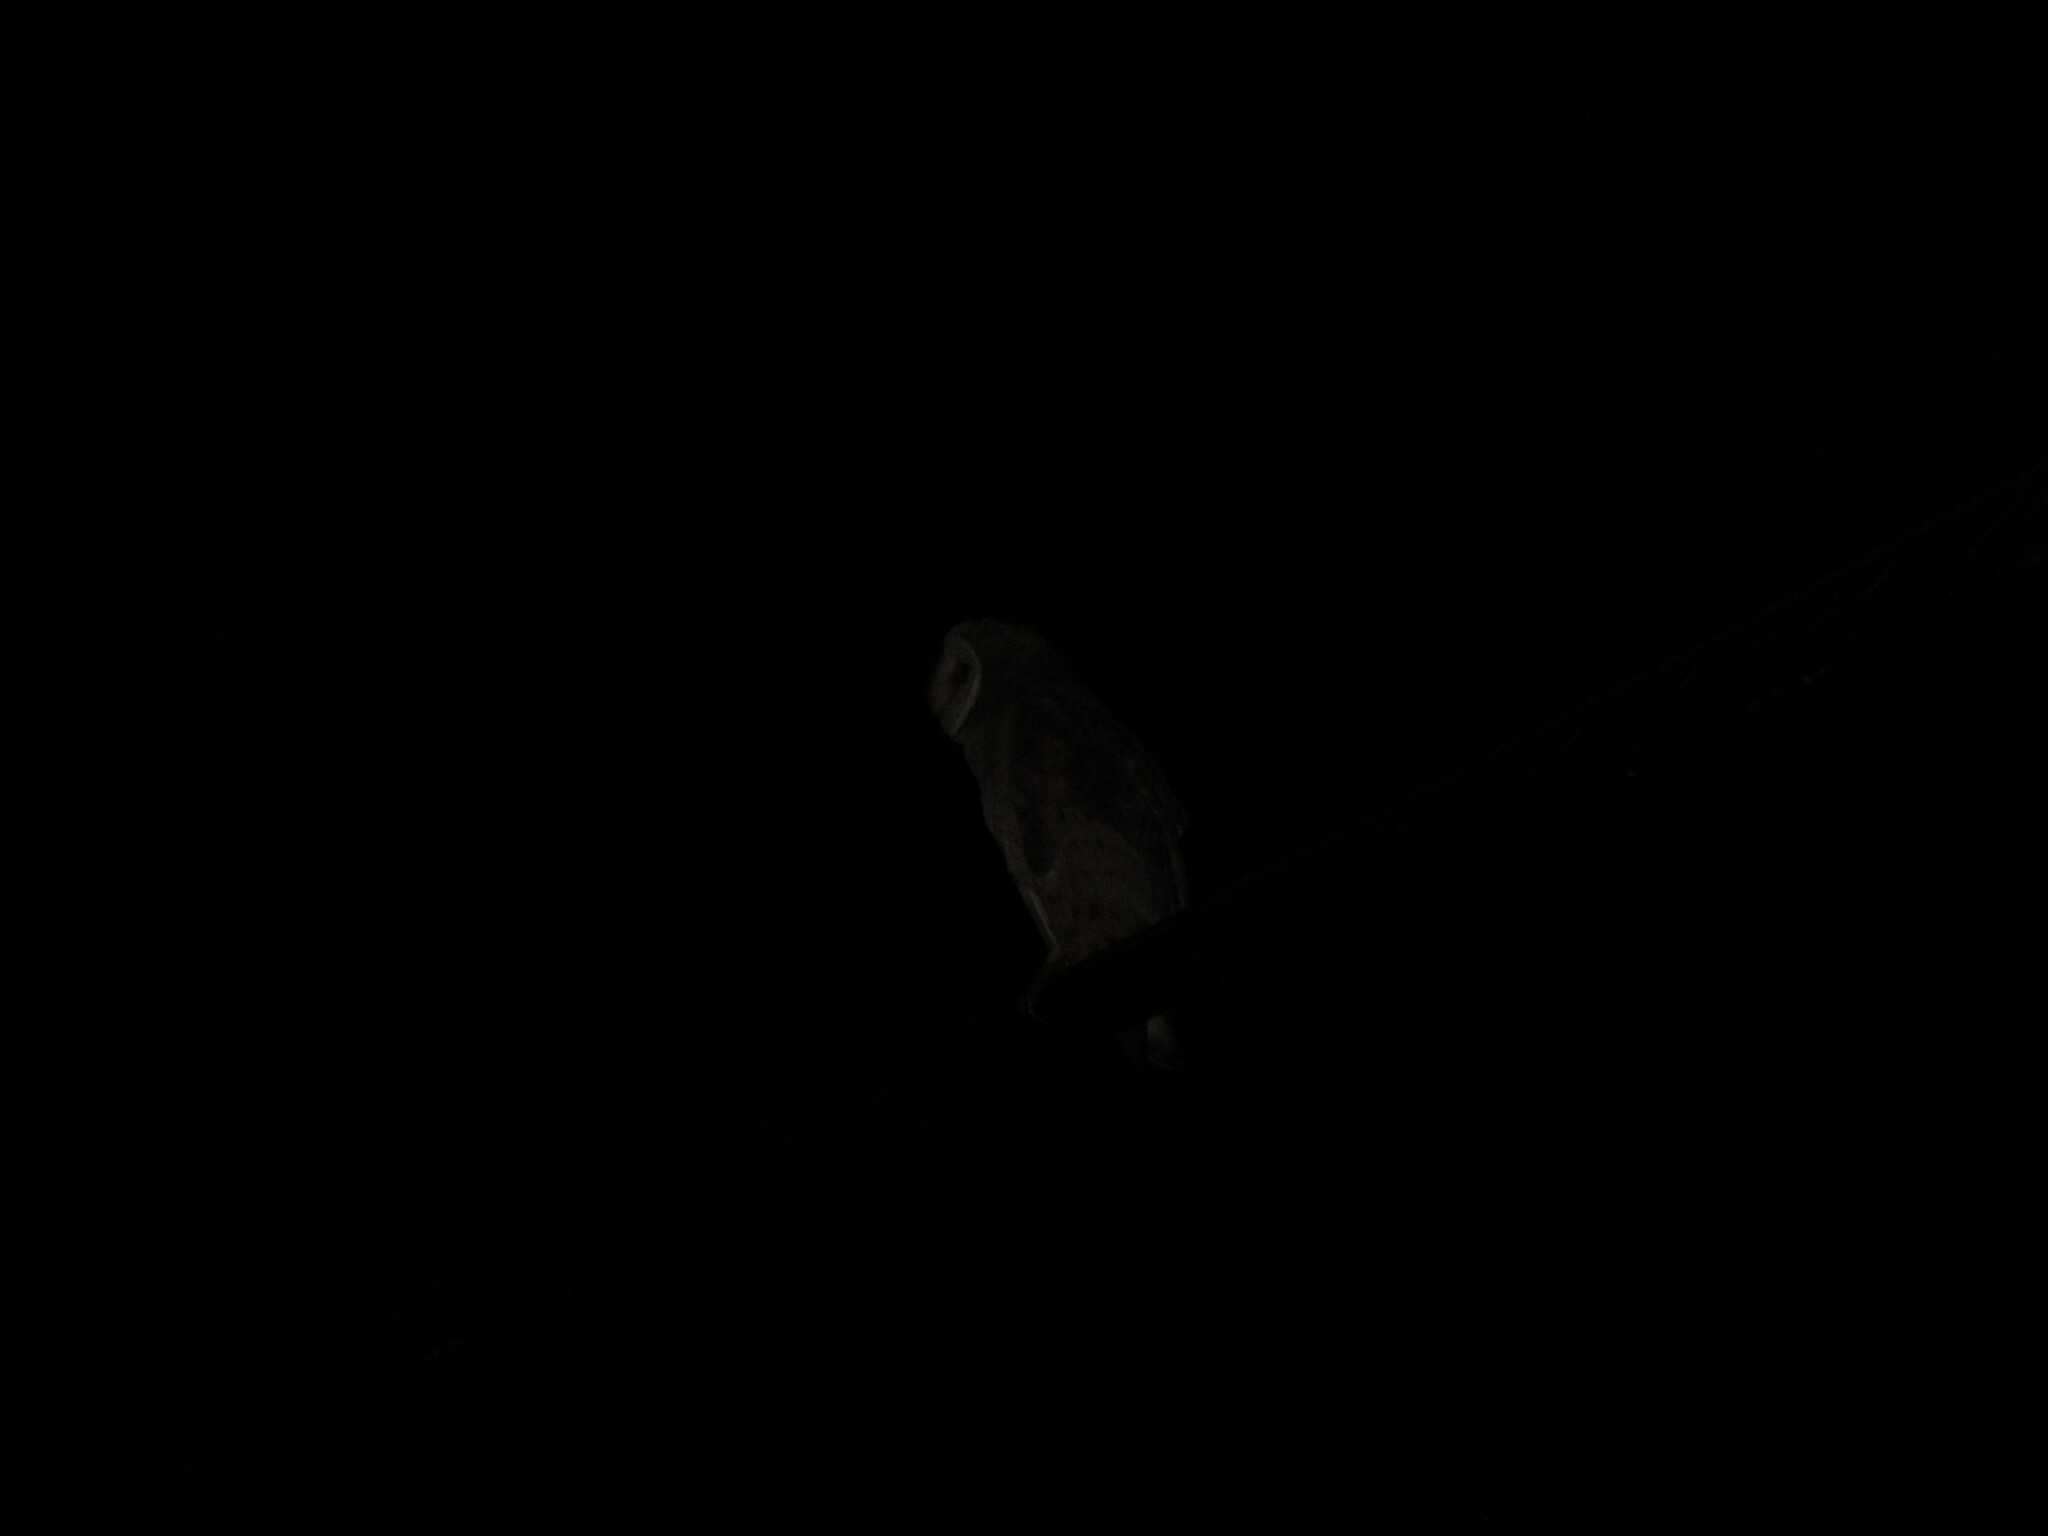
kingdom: Animalia
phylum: Chordata
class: Aves
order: Strigiformes
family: Tytonidae
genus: Tyto
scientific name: Tyto alba
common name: Barn owl
